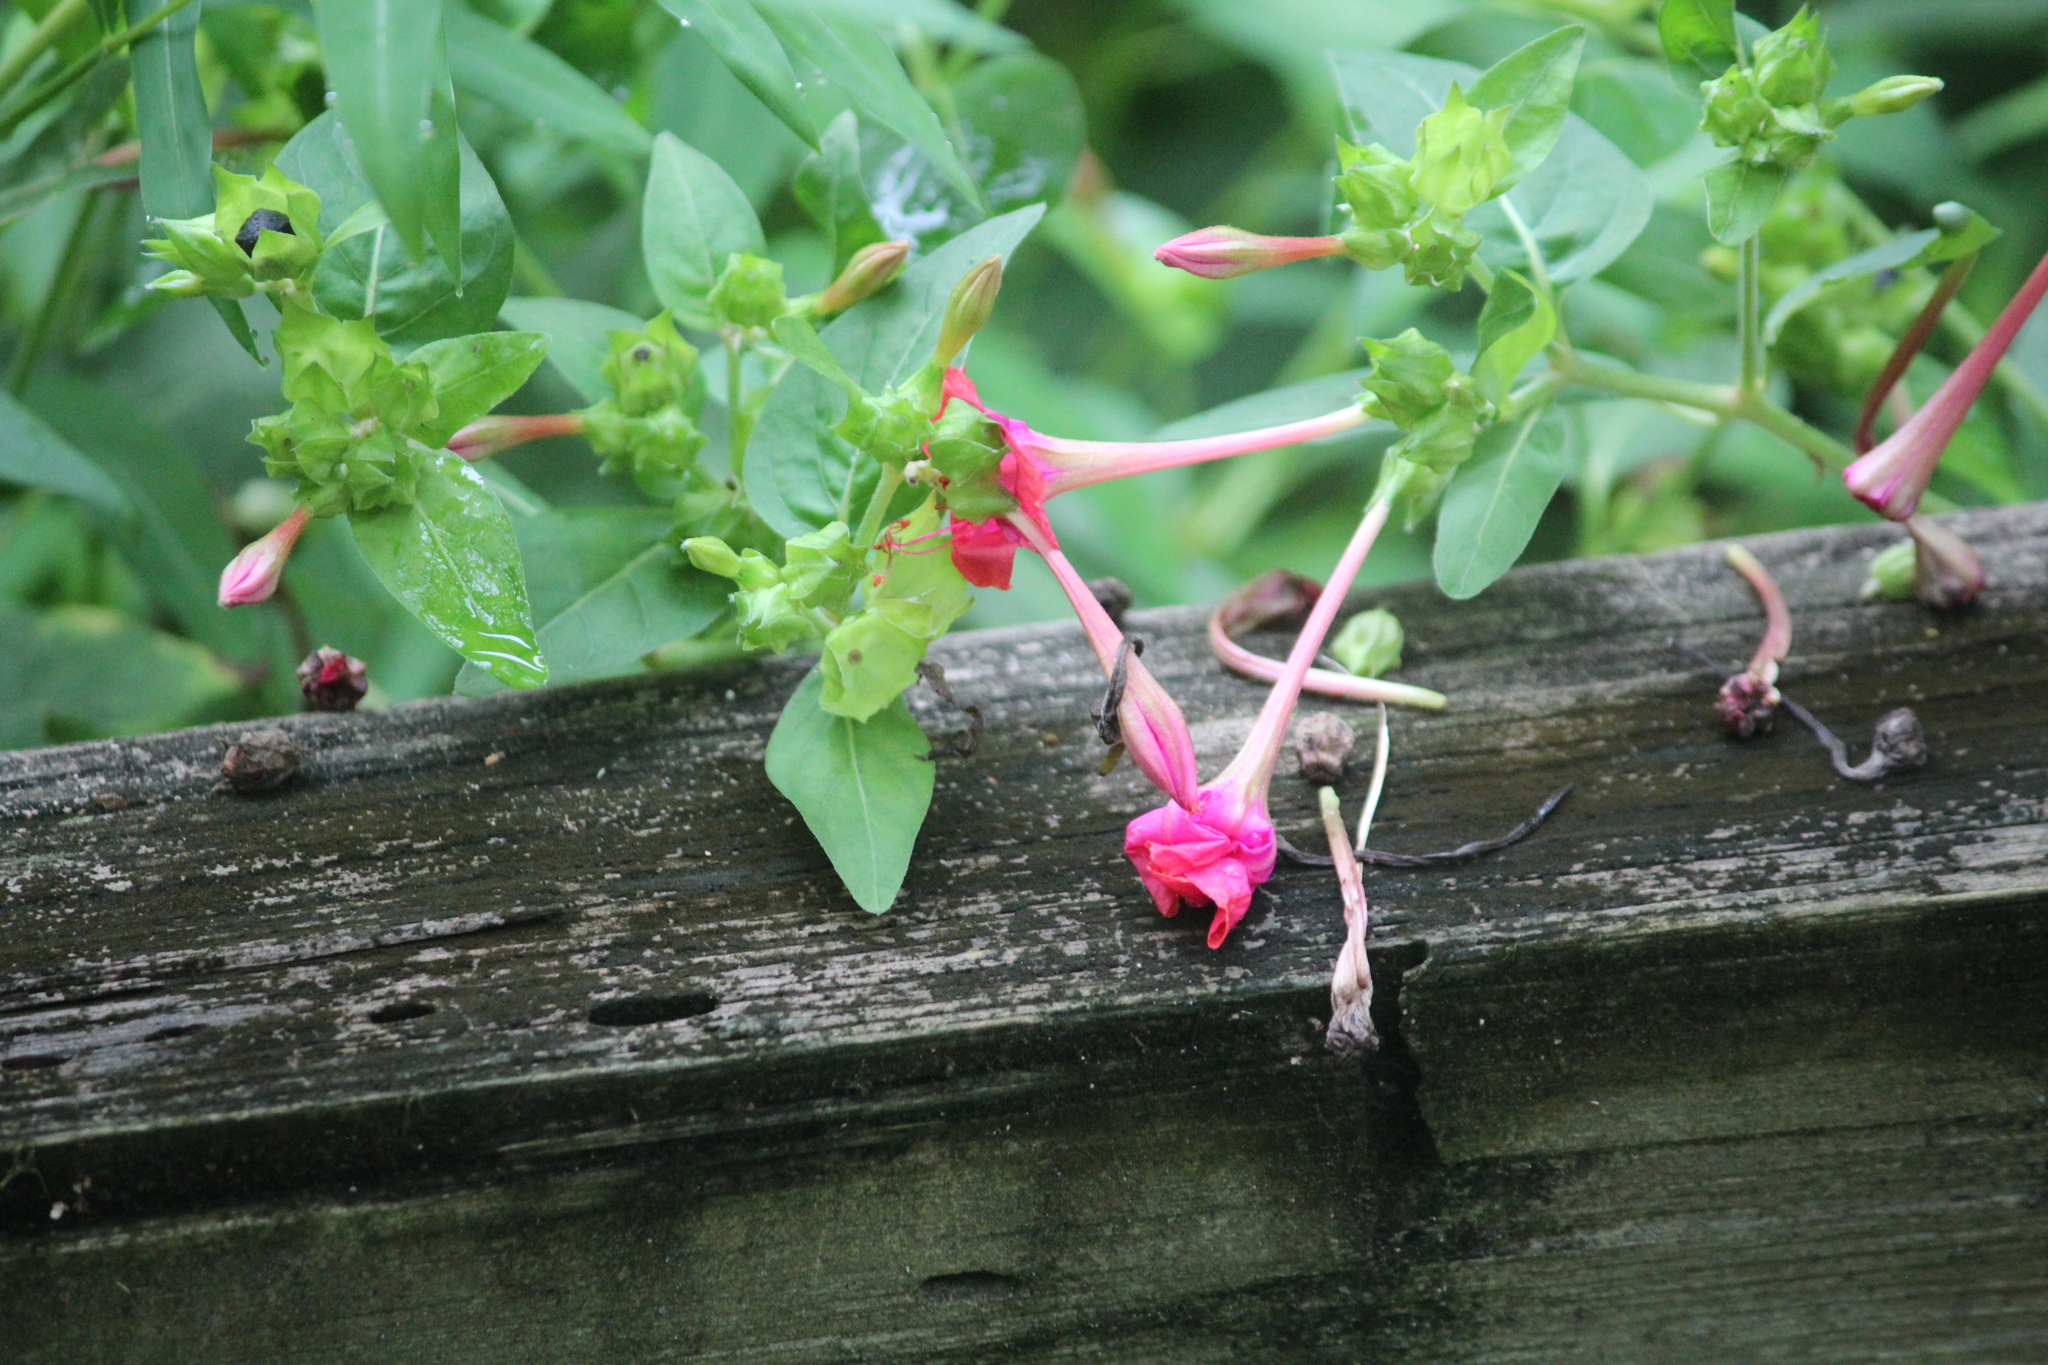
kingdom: Plantae
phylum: Tracheophyta
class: Magnoliopsida
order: Caryophyllales
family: Nyctaginaceae
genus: Mirabilis
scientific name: Mirabilis jalapa
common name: Marvel-of-peru
